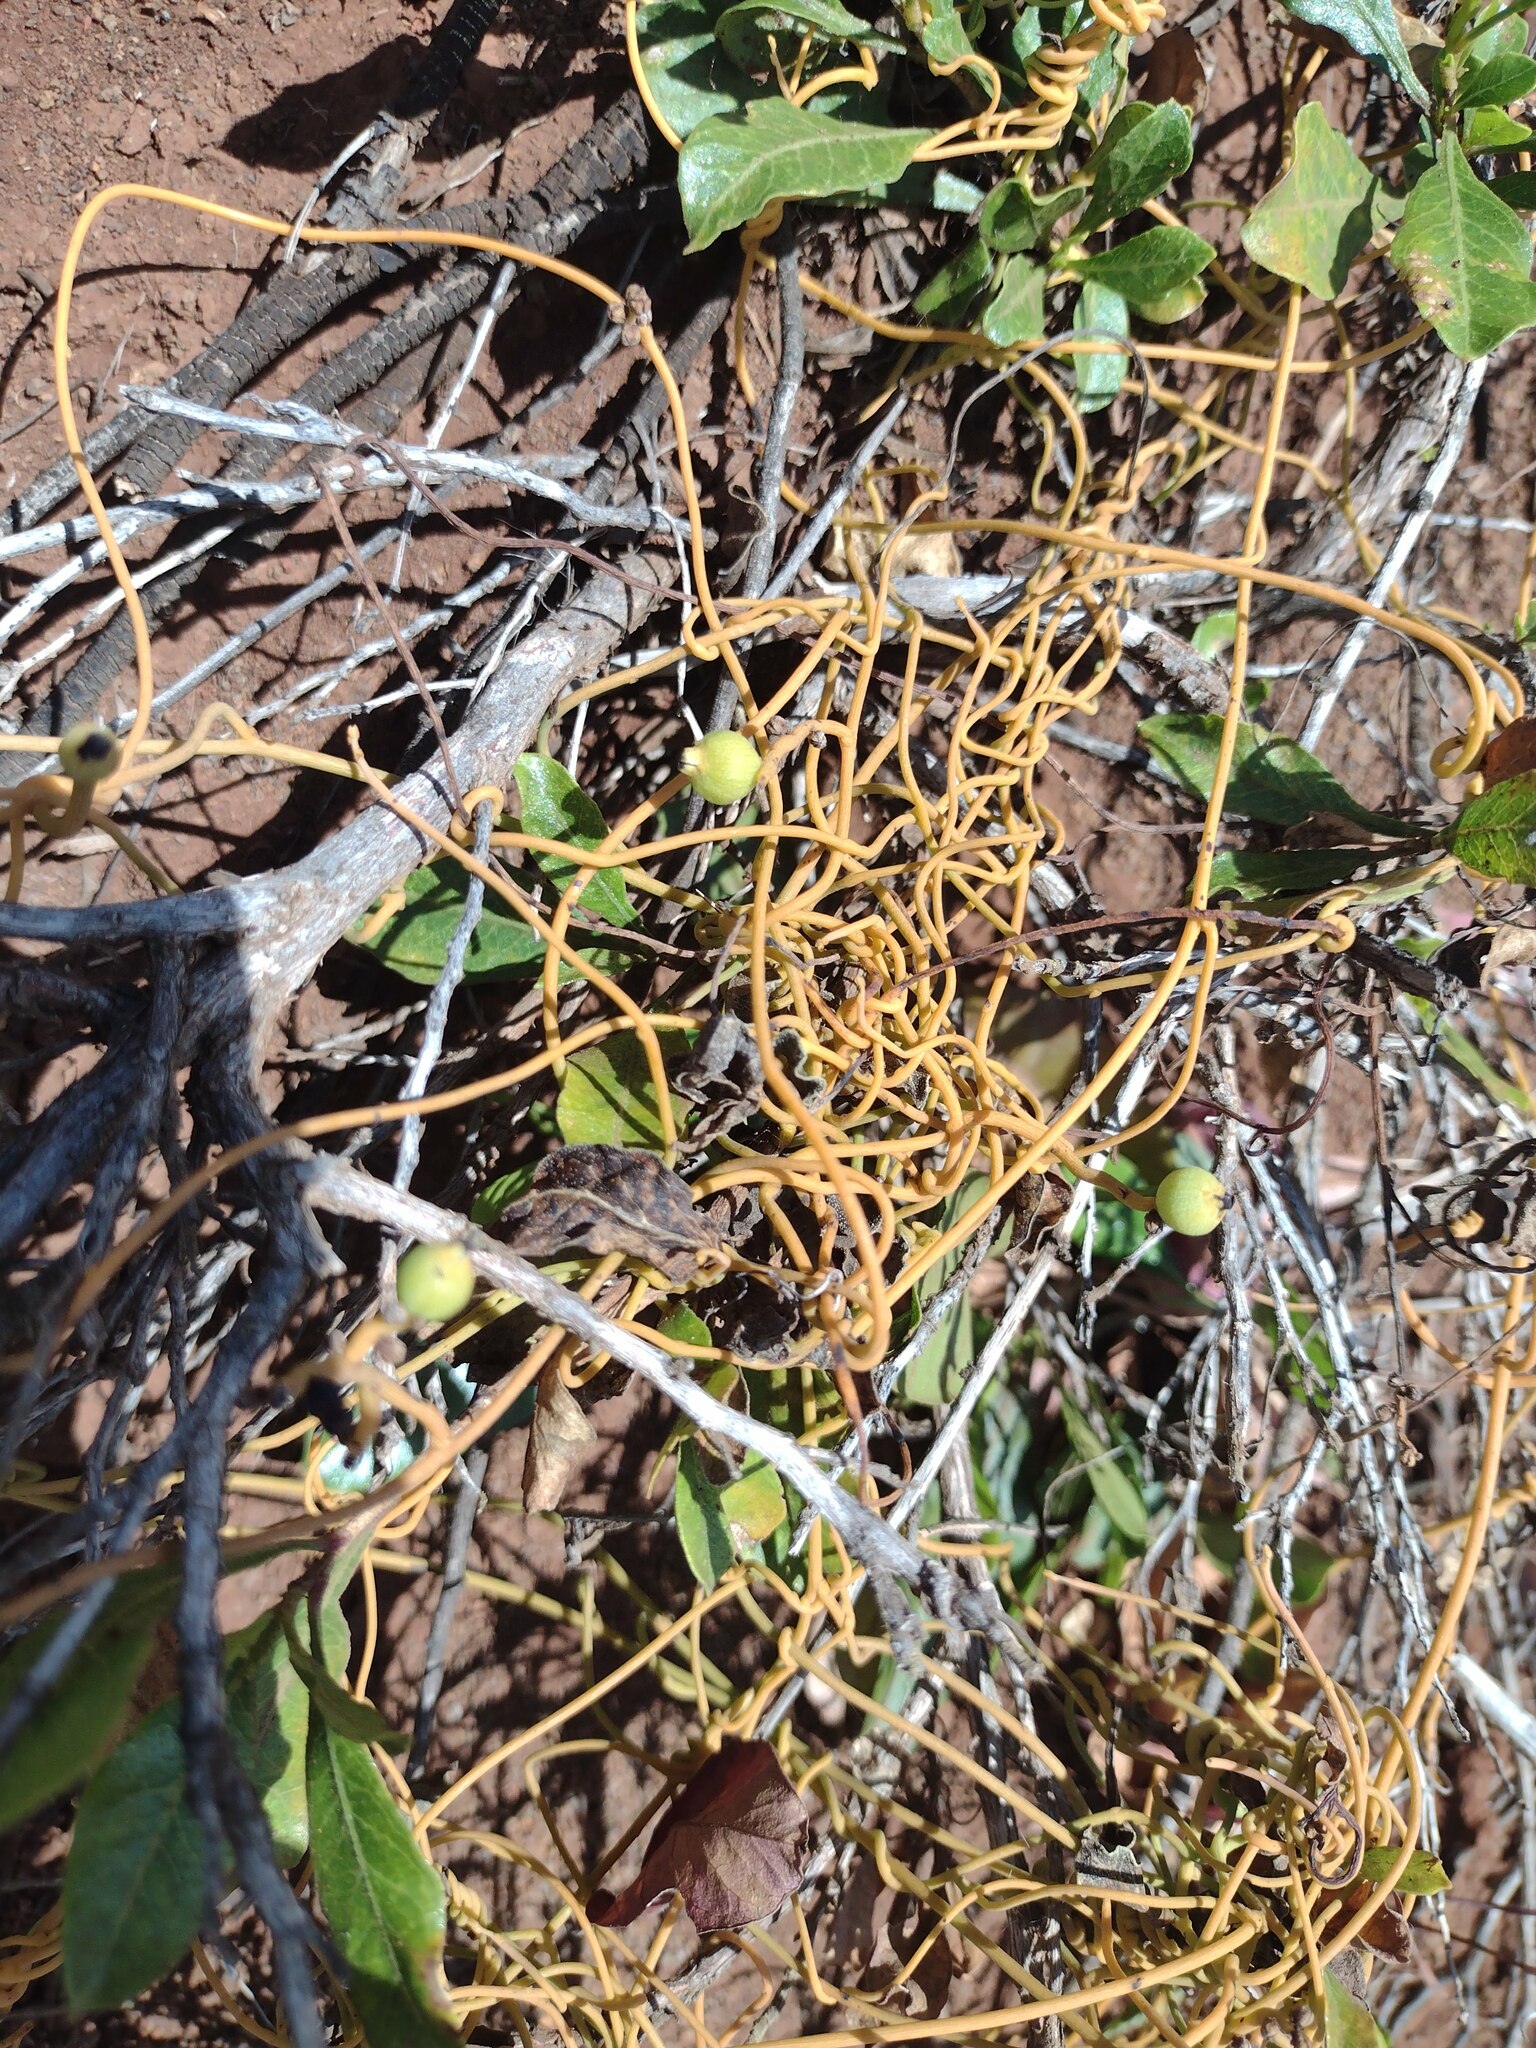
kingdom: Plantae
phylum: Tracheophyta
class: Magnoliopsida
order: Laurales
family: Lauraceae
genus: Cassytha
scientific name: Cassytha filiformis
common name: Dodder-laurel
